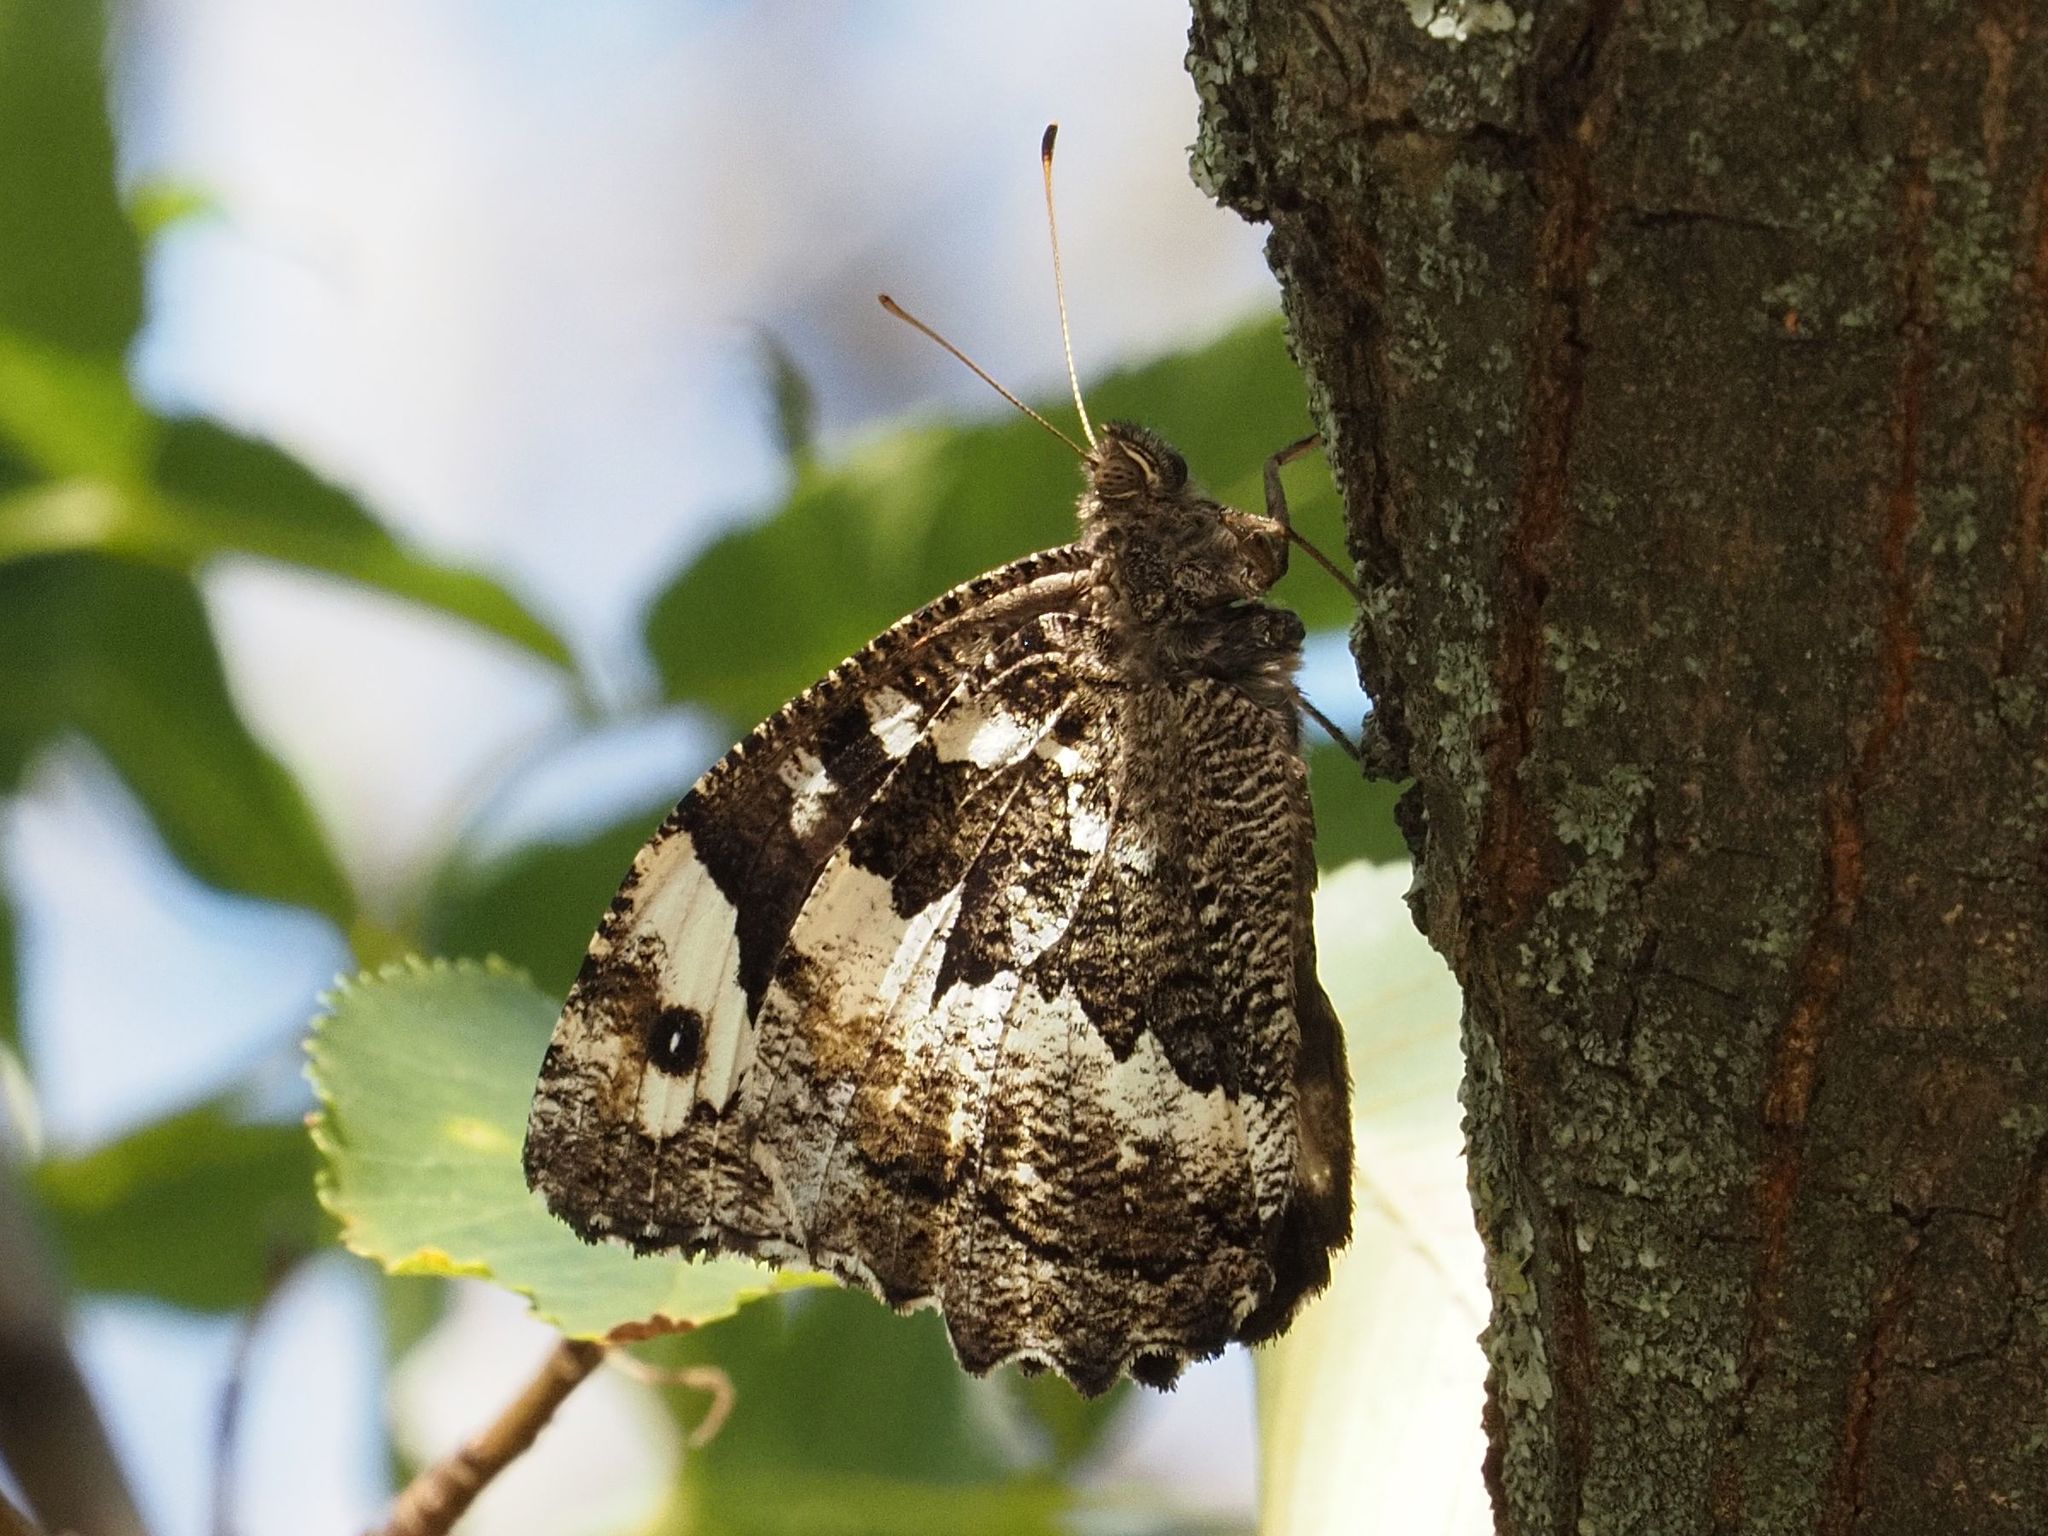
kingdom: Animalia
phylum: Arthropoda
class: Insecta
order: Lepidoptera
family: Lycaenidae
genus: Loweia
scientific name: Loweia tityrus
